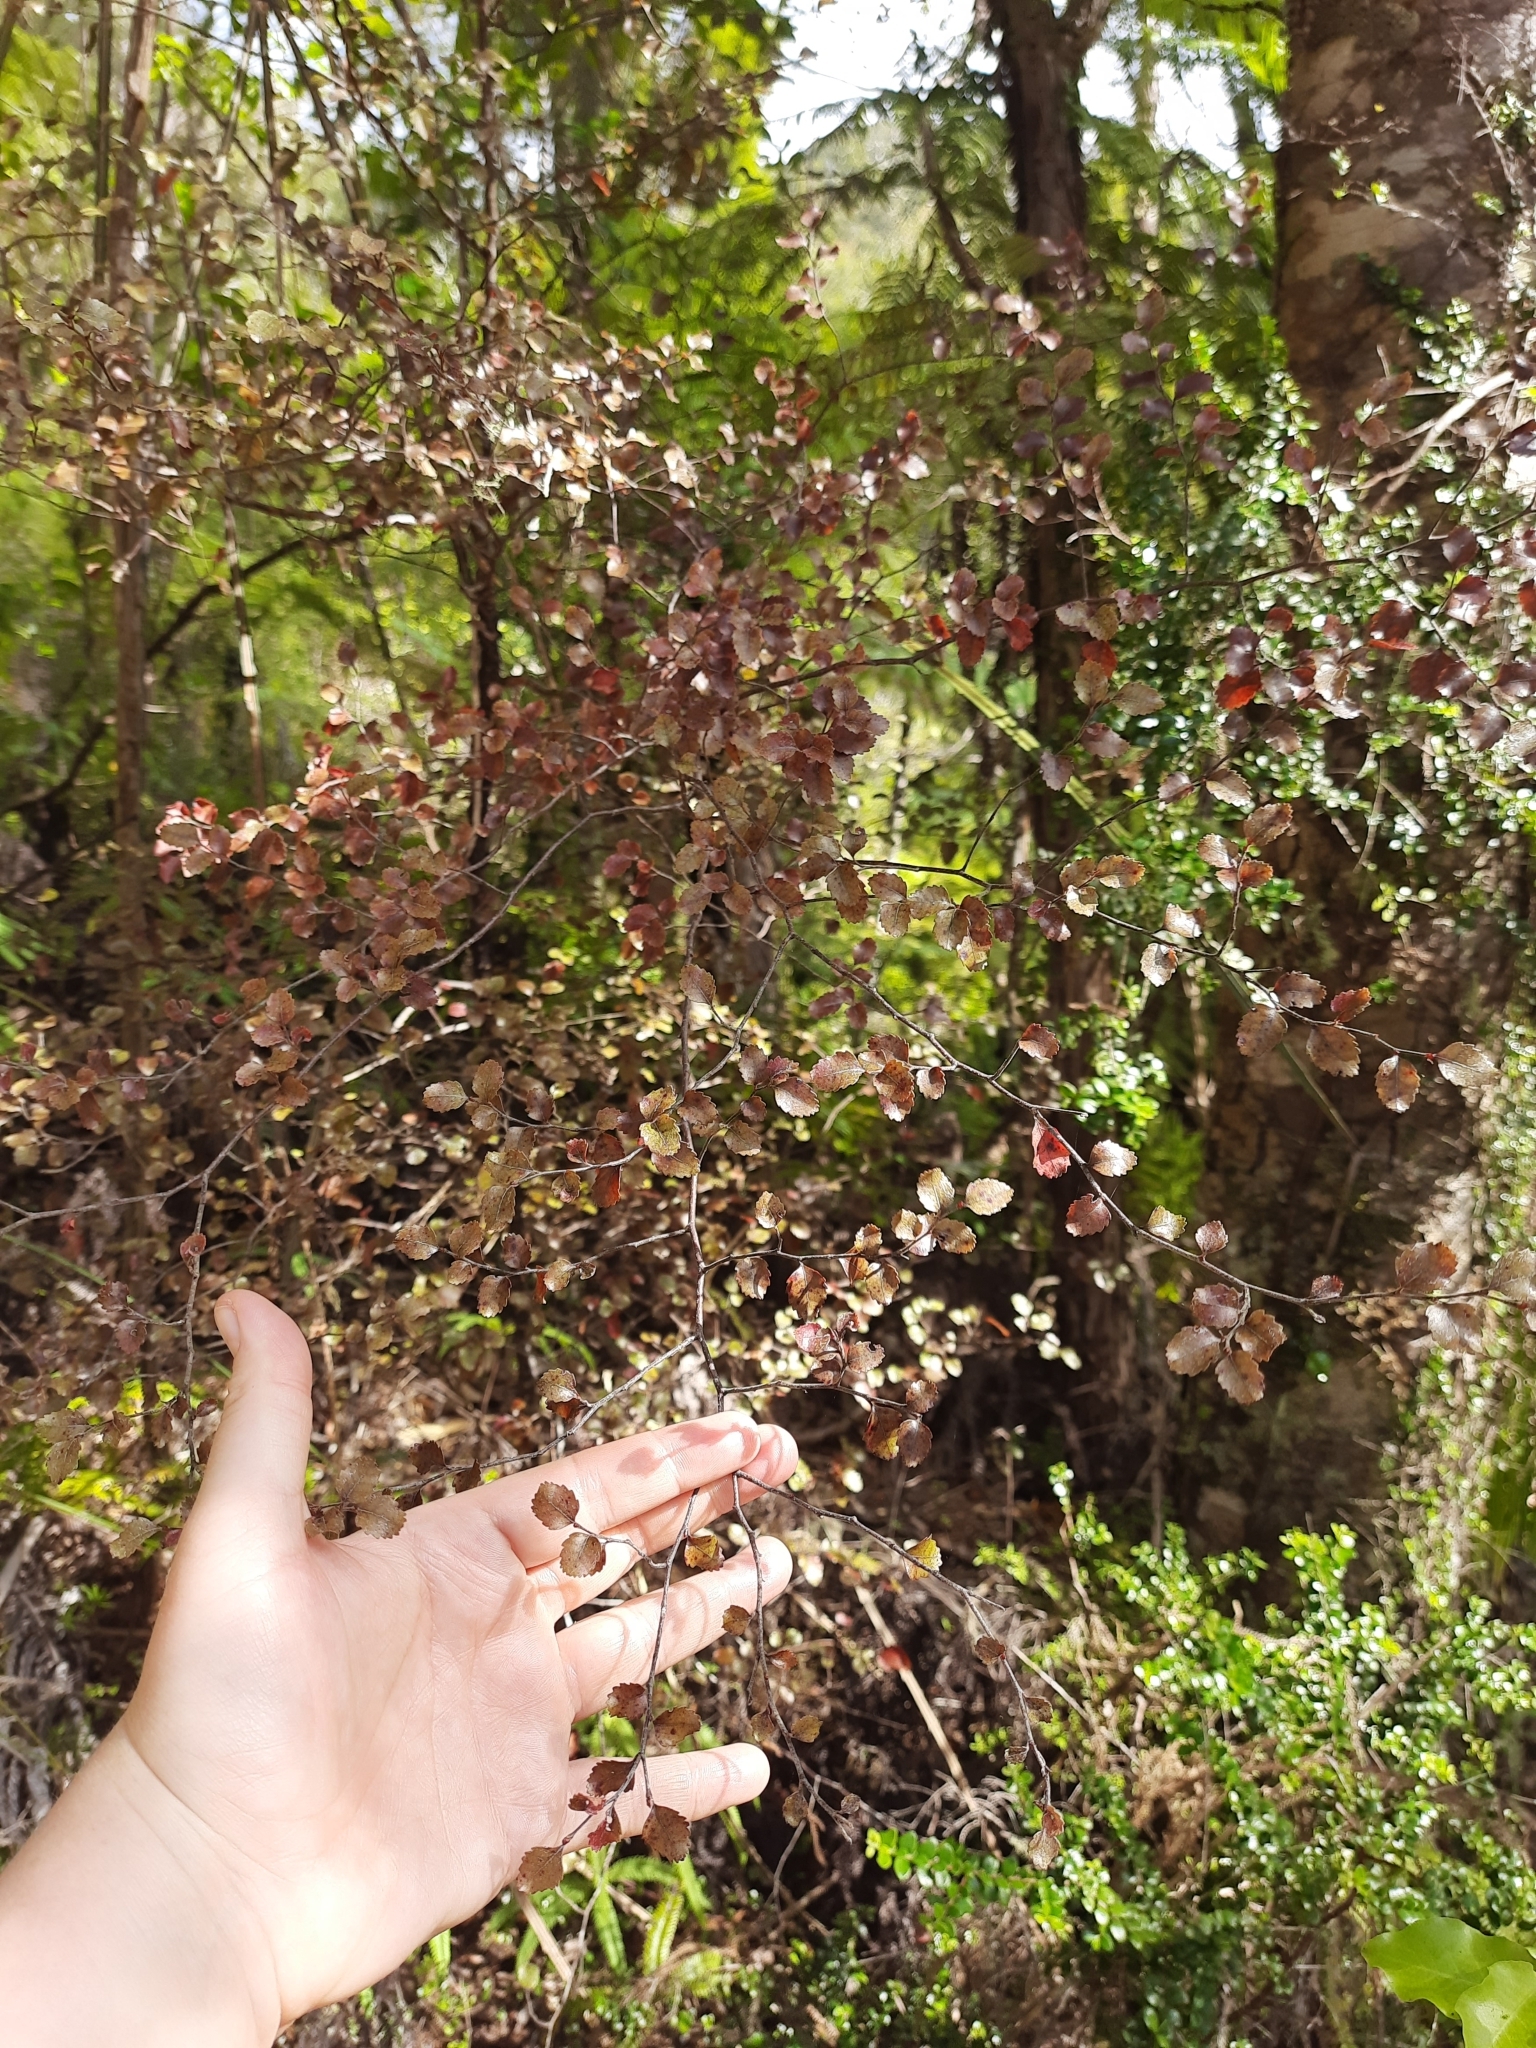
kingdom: Plantae
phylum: Tracheophyta
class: Magnoliopsida
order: Fagales
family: Nothofagaceae
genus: Nothofagus
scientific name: Nothofagus truncata
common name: Hard beech
